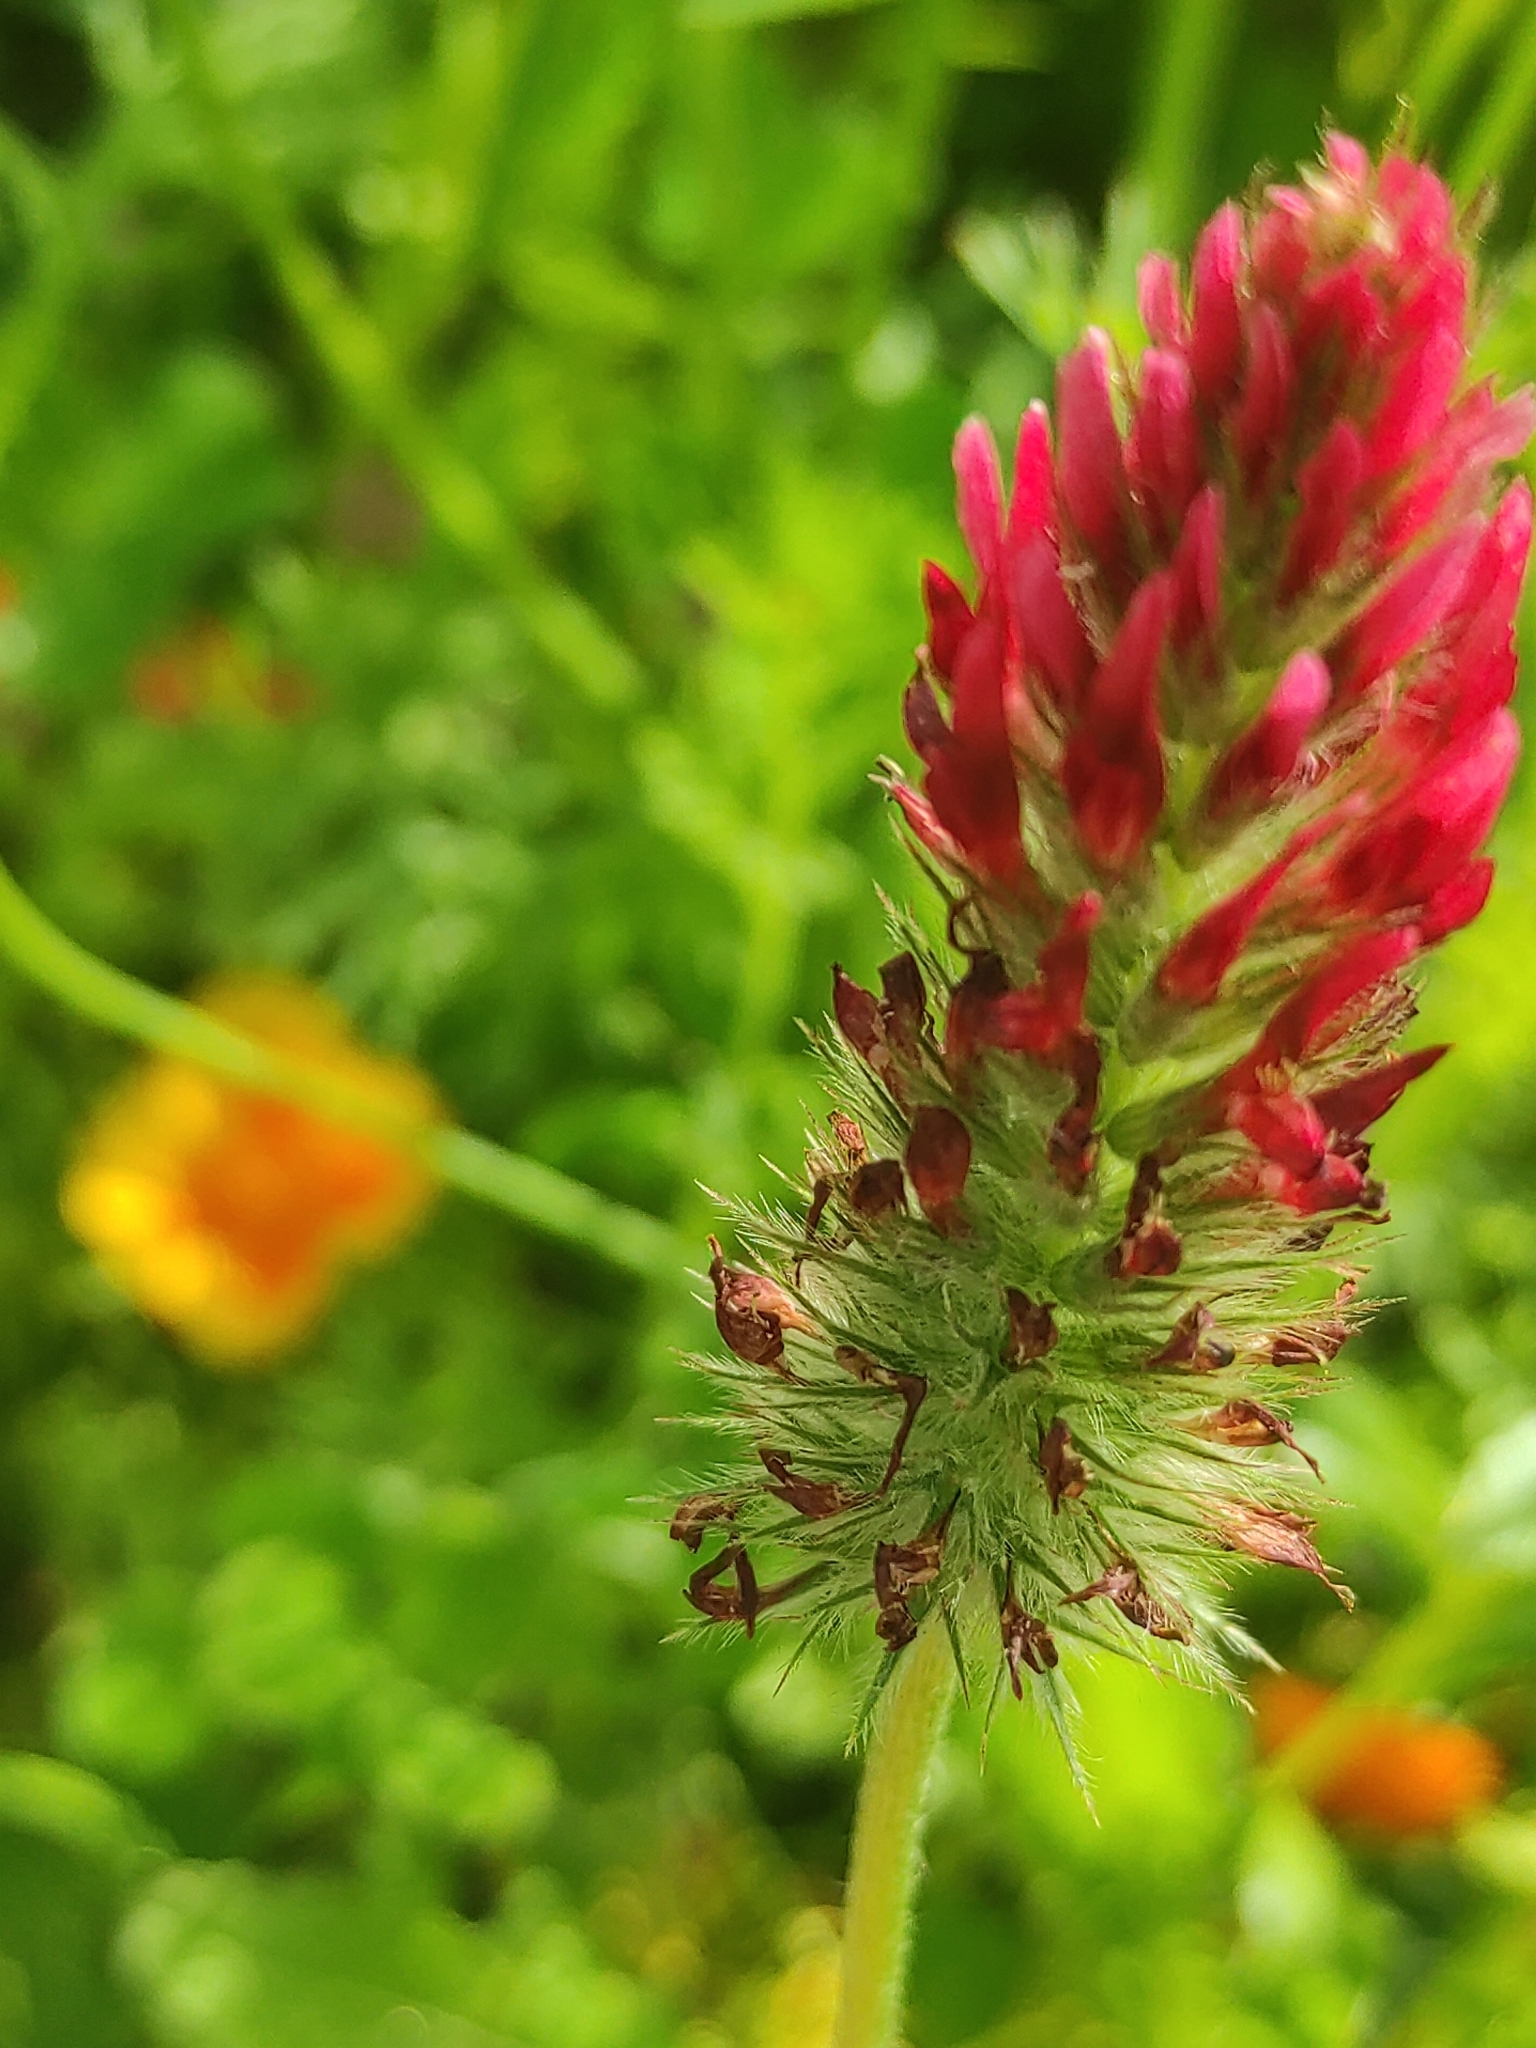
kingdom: Plantae
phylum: Tracheophyta
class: Magnoliopsida
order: Fabales
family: Fabaceae
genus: Trifolium
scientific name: Trifolium incarnatum
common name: Crimson clover
